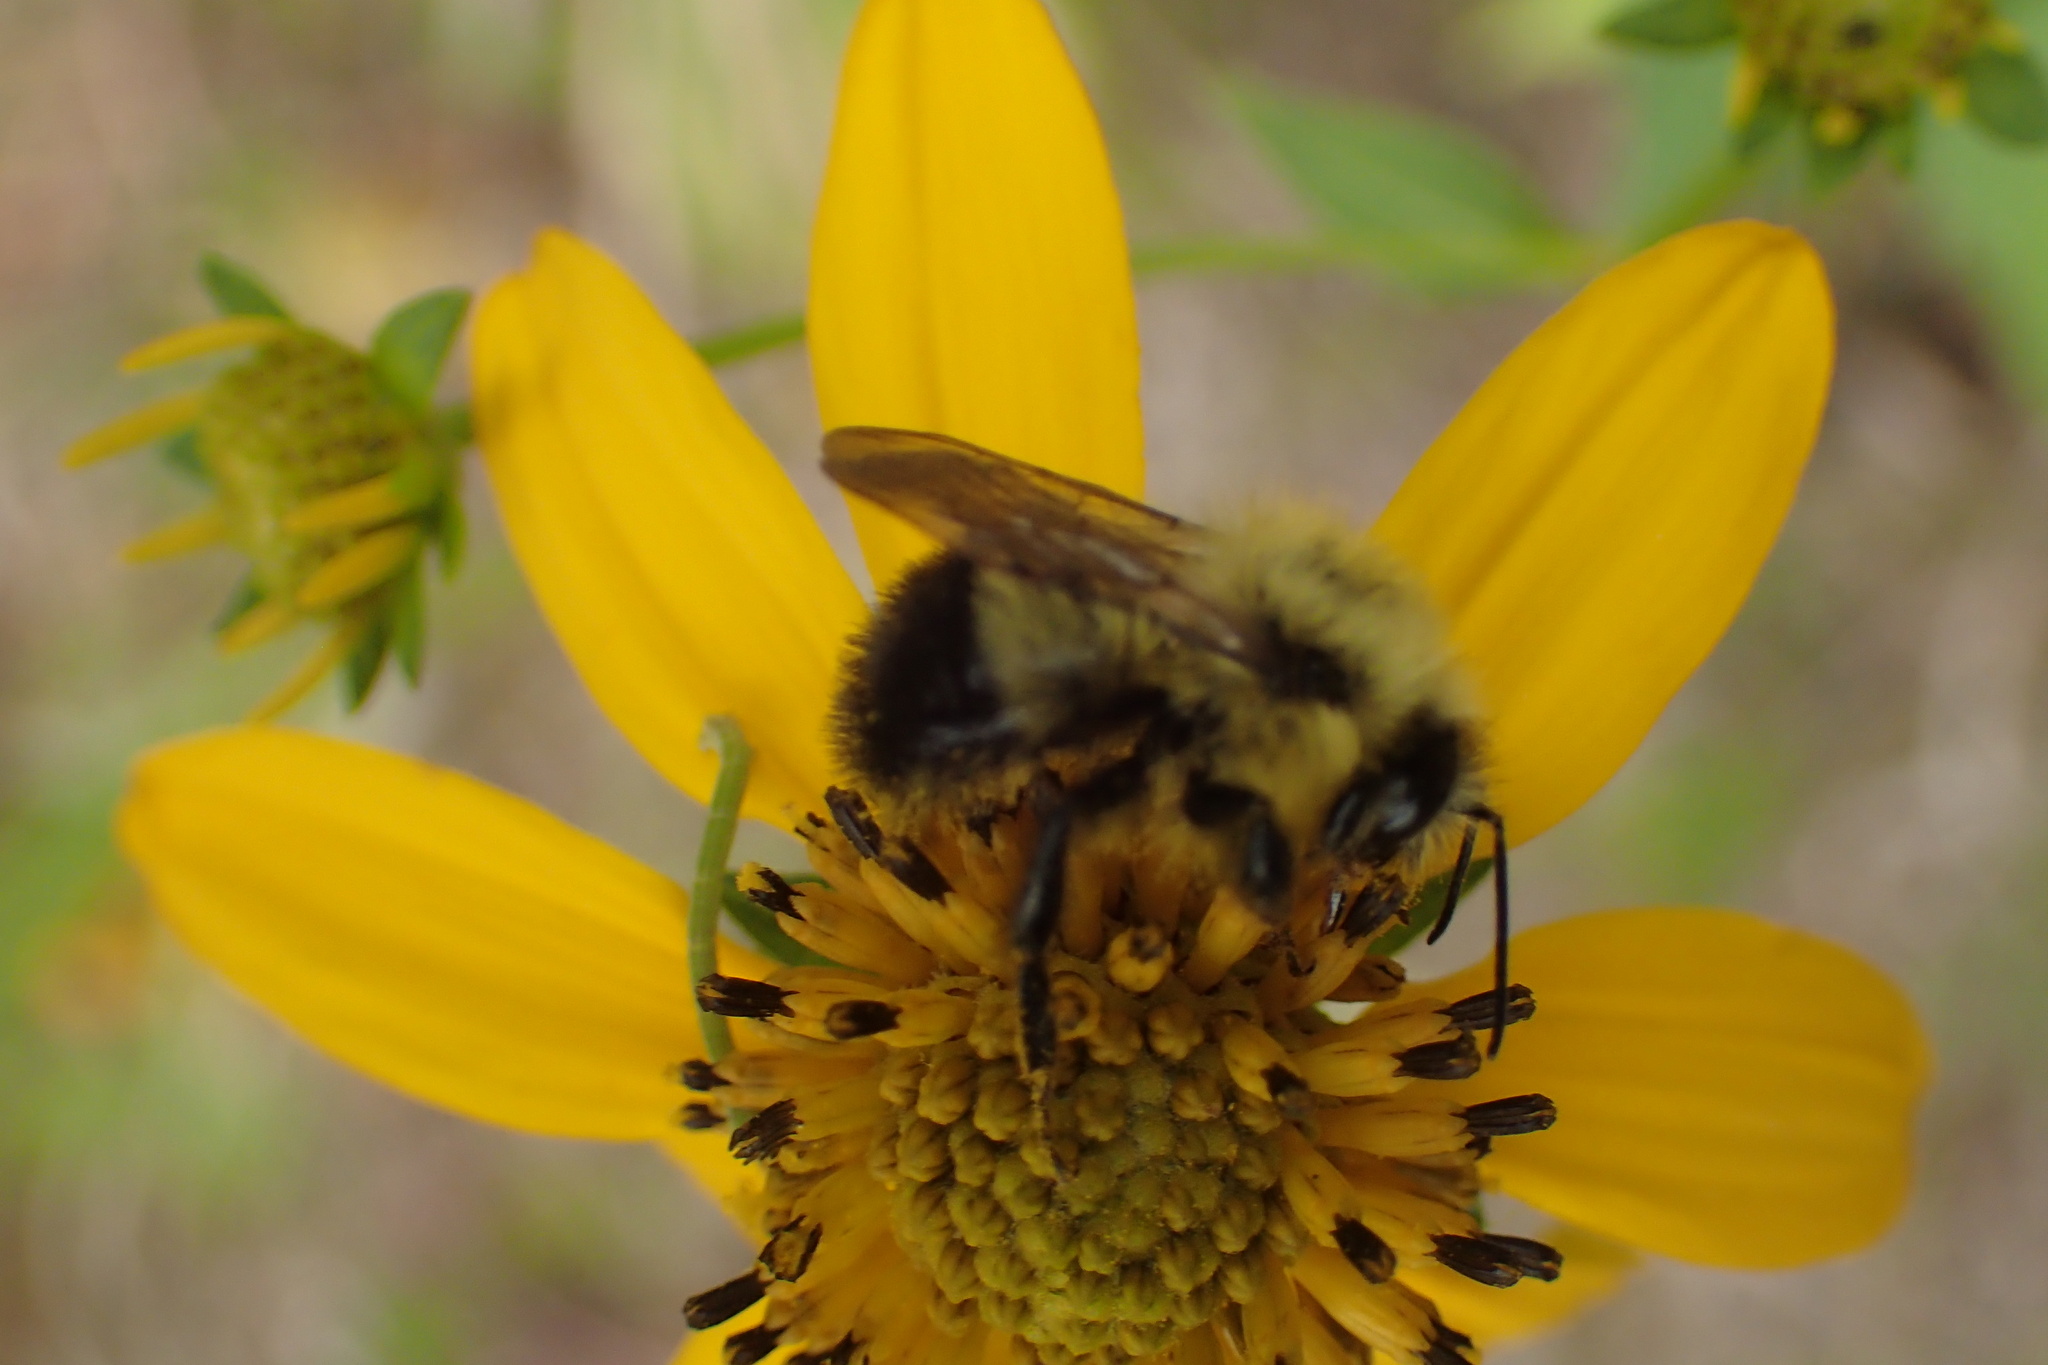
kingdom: Animalia
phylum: Arthropoda
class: Insecta
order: Hymenoptera
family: Apidae
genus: Bombus
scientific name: Bombus vagans
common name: Half-black bumble bee
